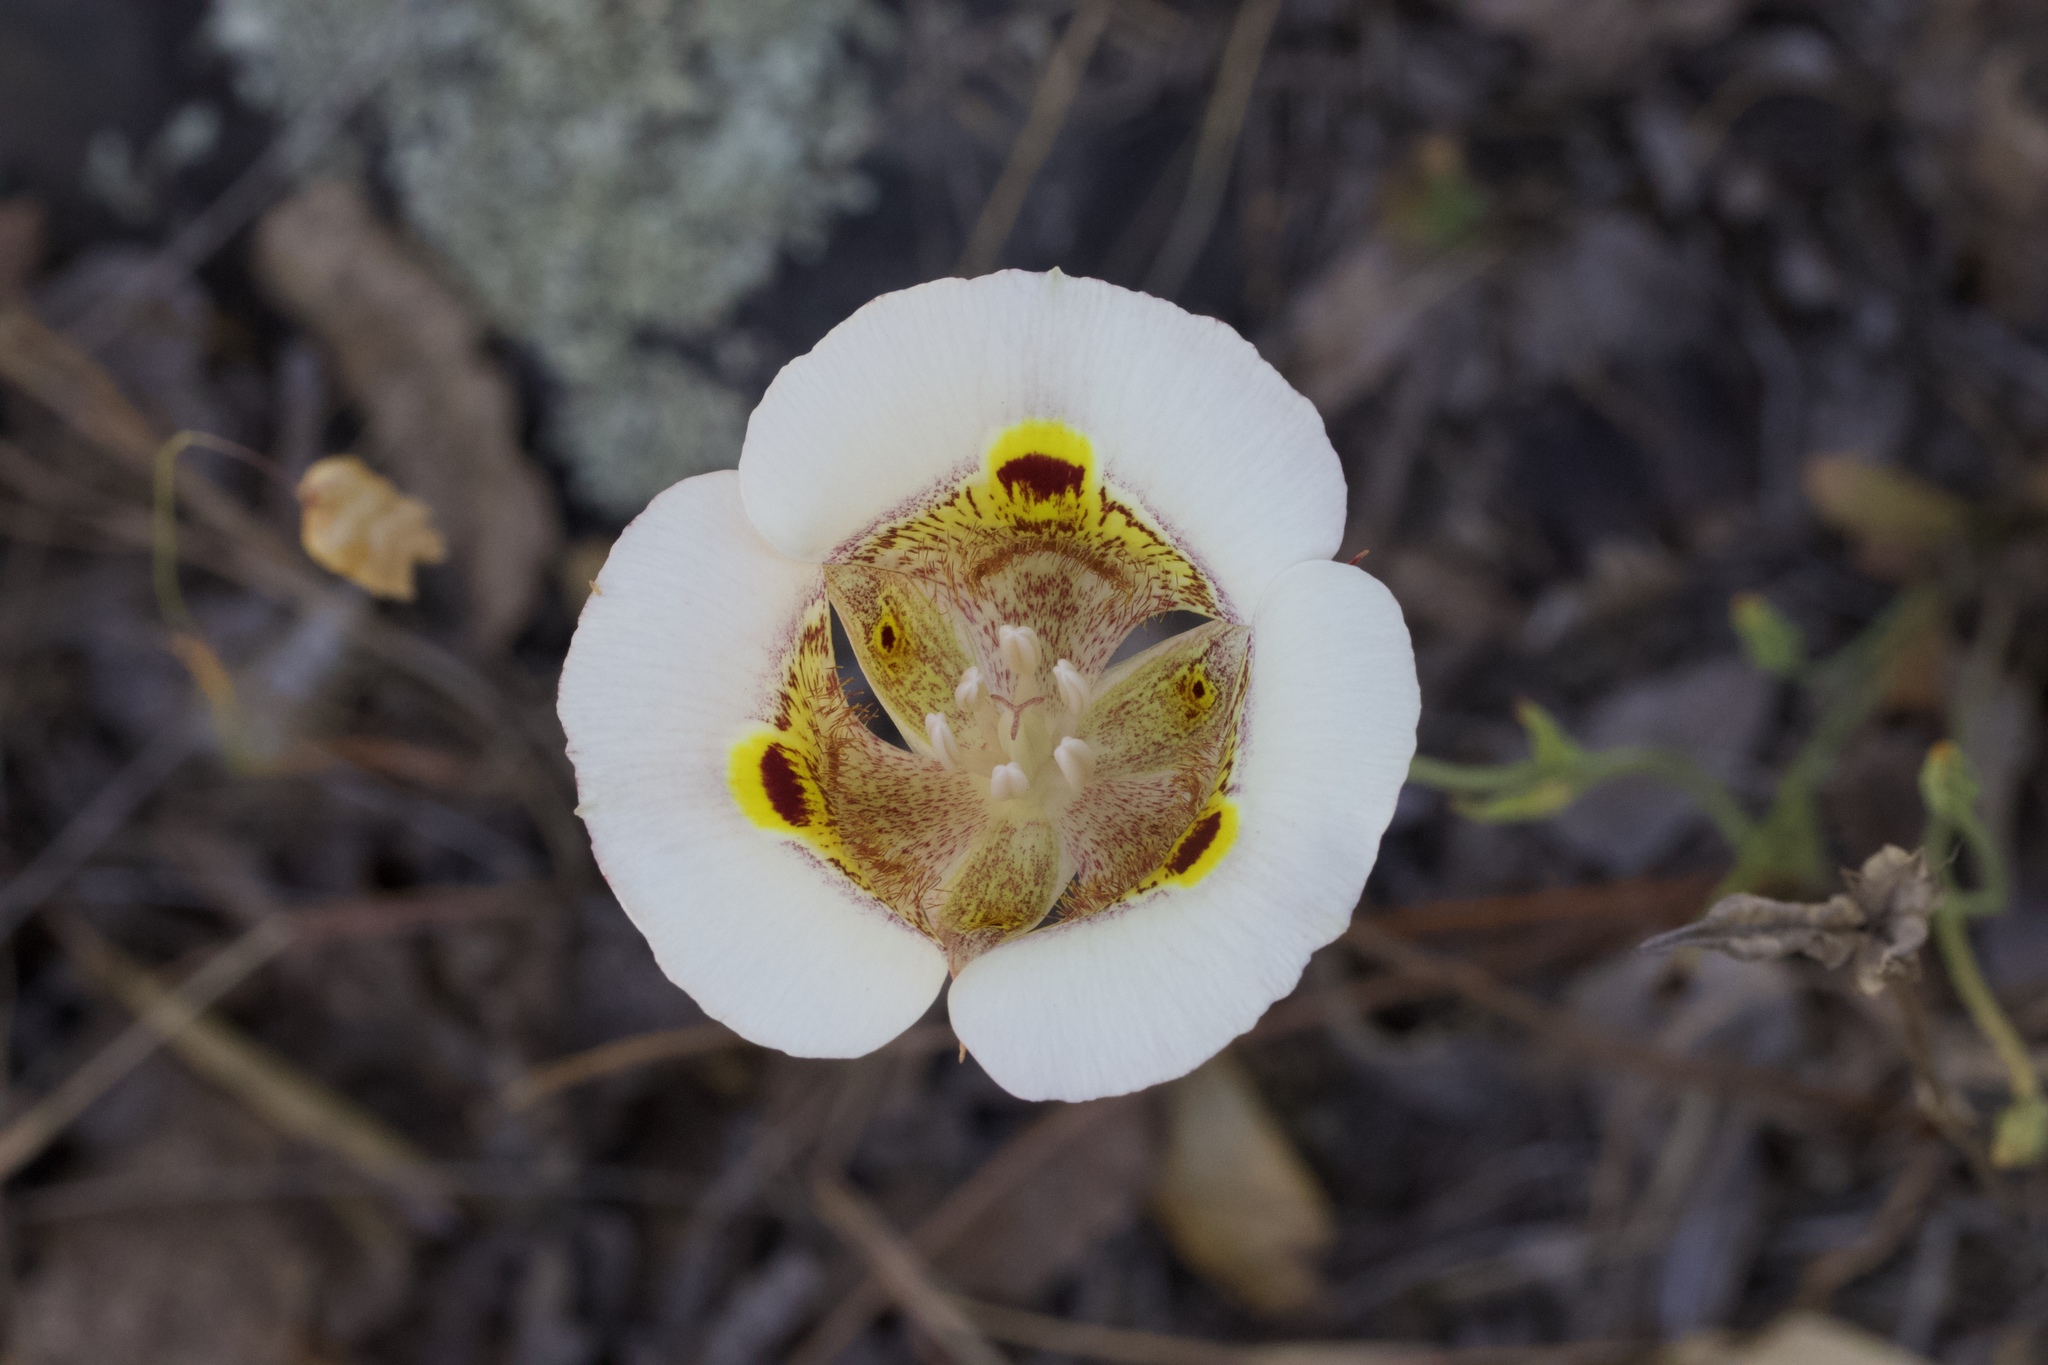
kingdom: Plantae
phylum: Tracheophyta
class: Liliopsida
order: Liliales
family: Liliaceae
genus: Calochortus
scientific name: Calochortus superbus
